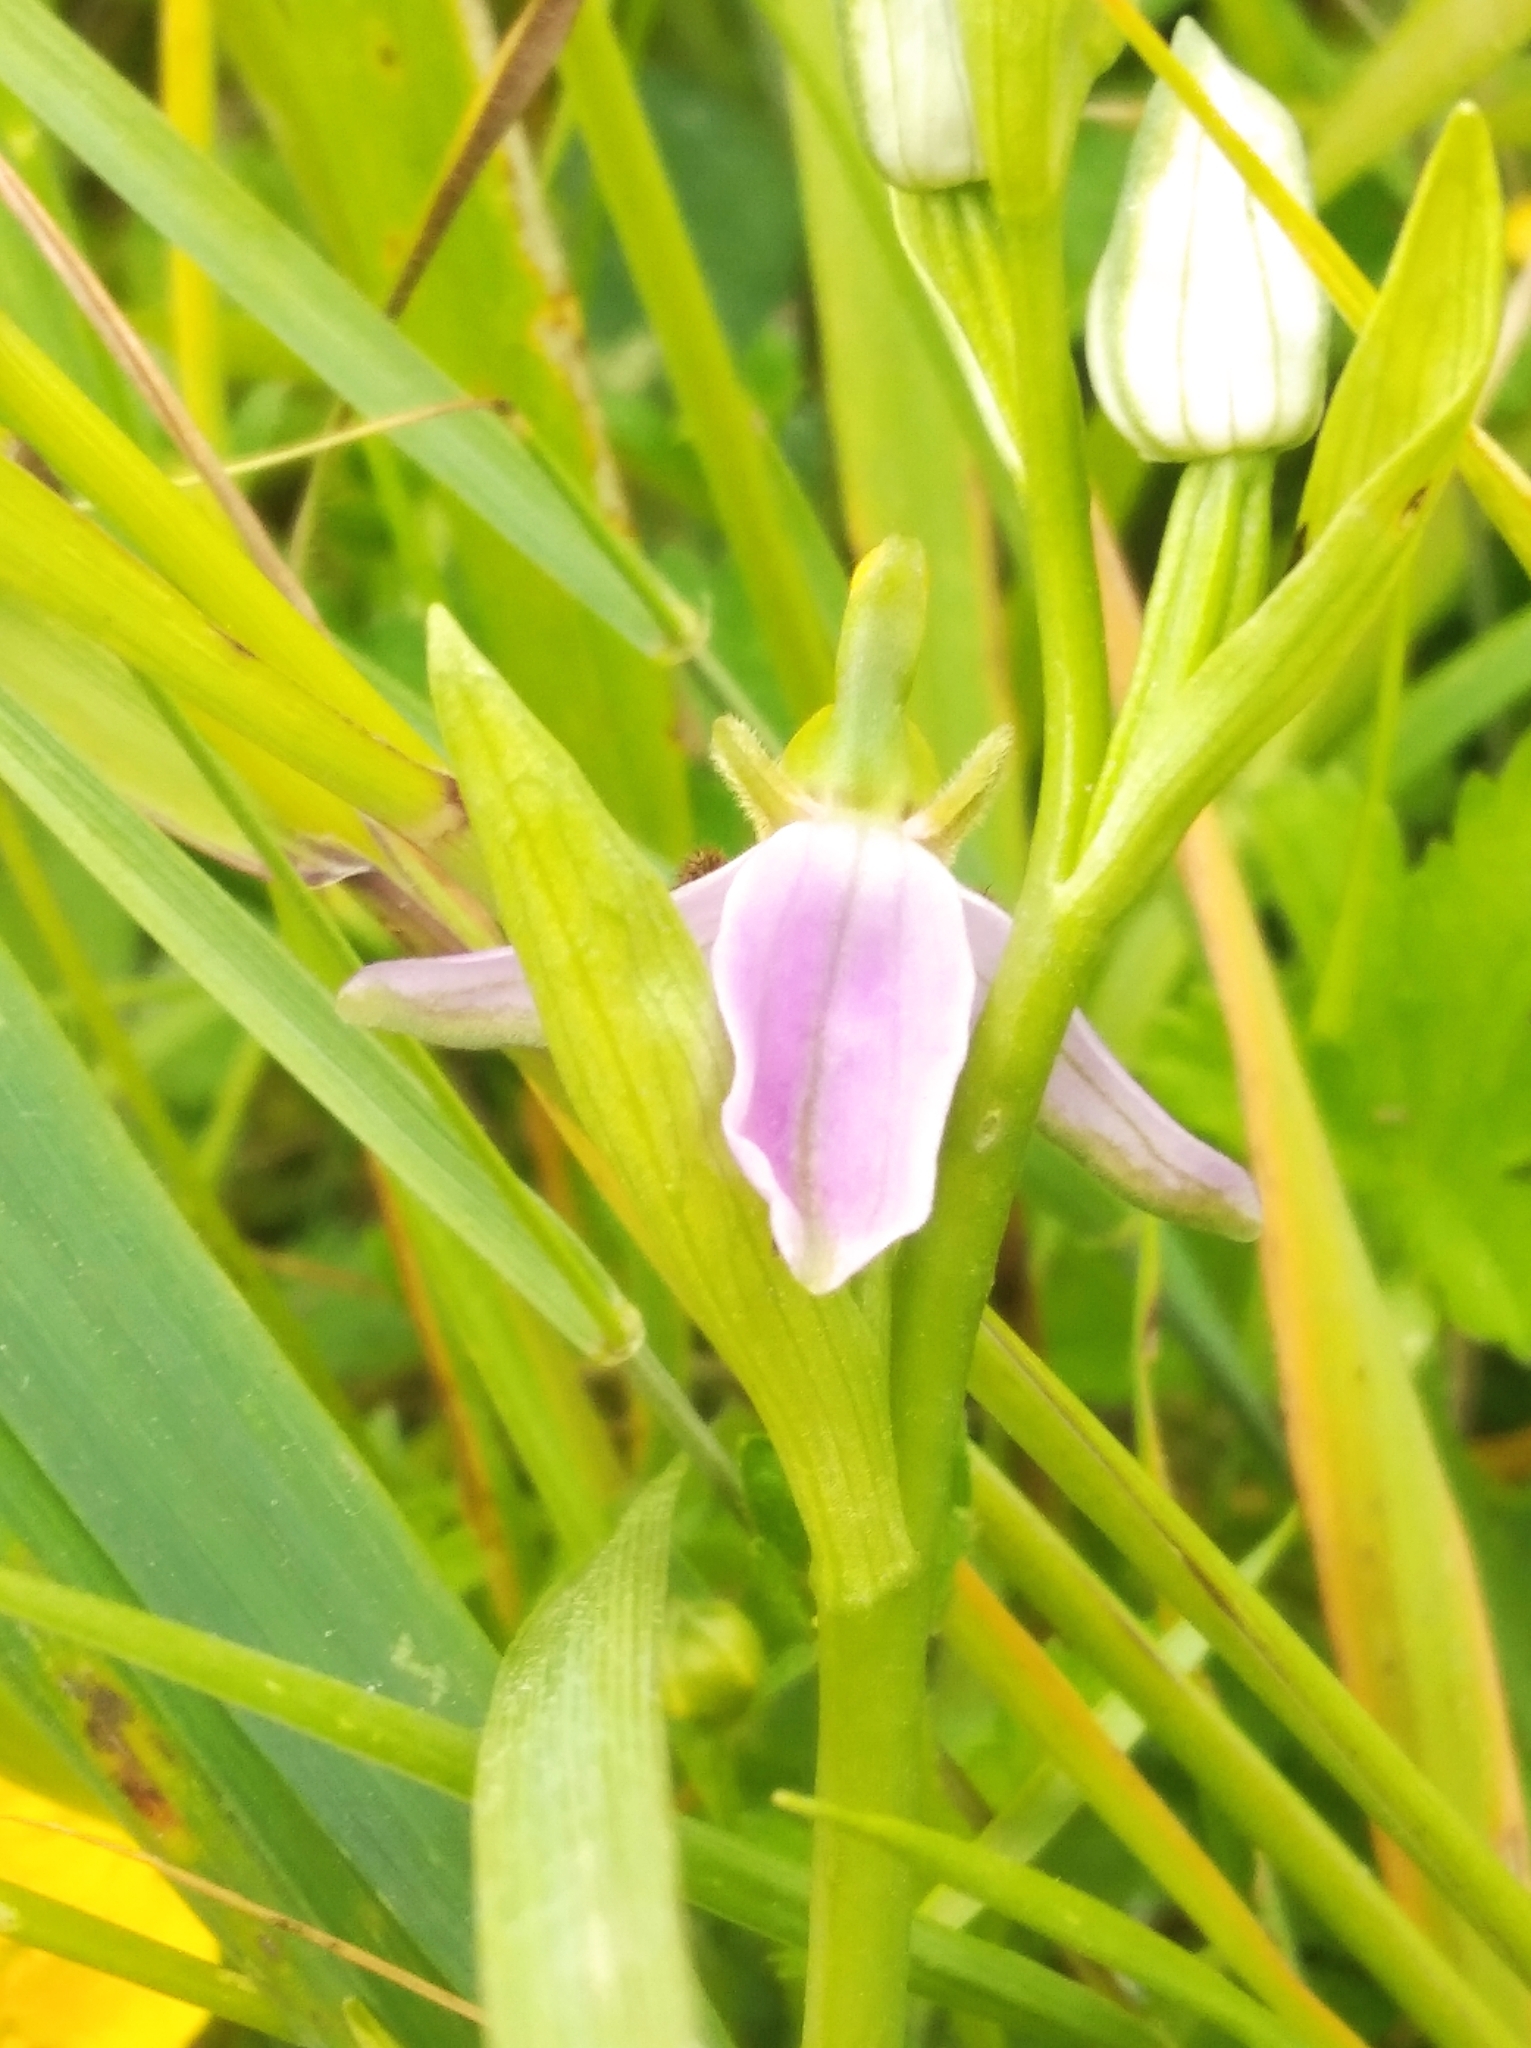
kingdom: Plantae
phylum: Tracheophyta
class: Liliopsida
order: Asparagales
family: Orchidaceae
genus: Ophrys
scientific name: Ophrys apifera
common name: Bee orchid
